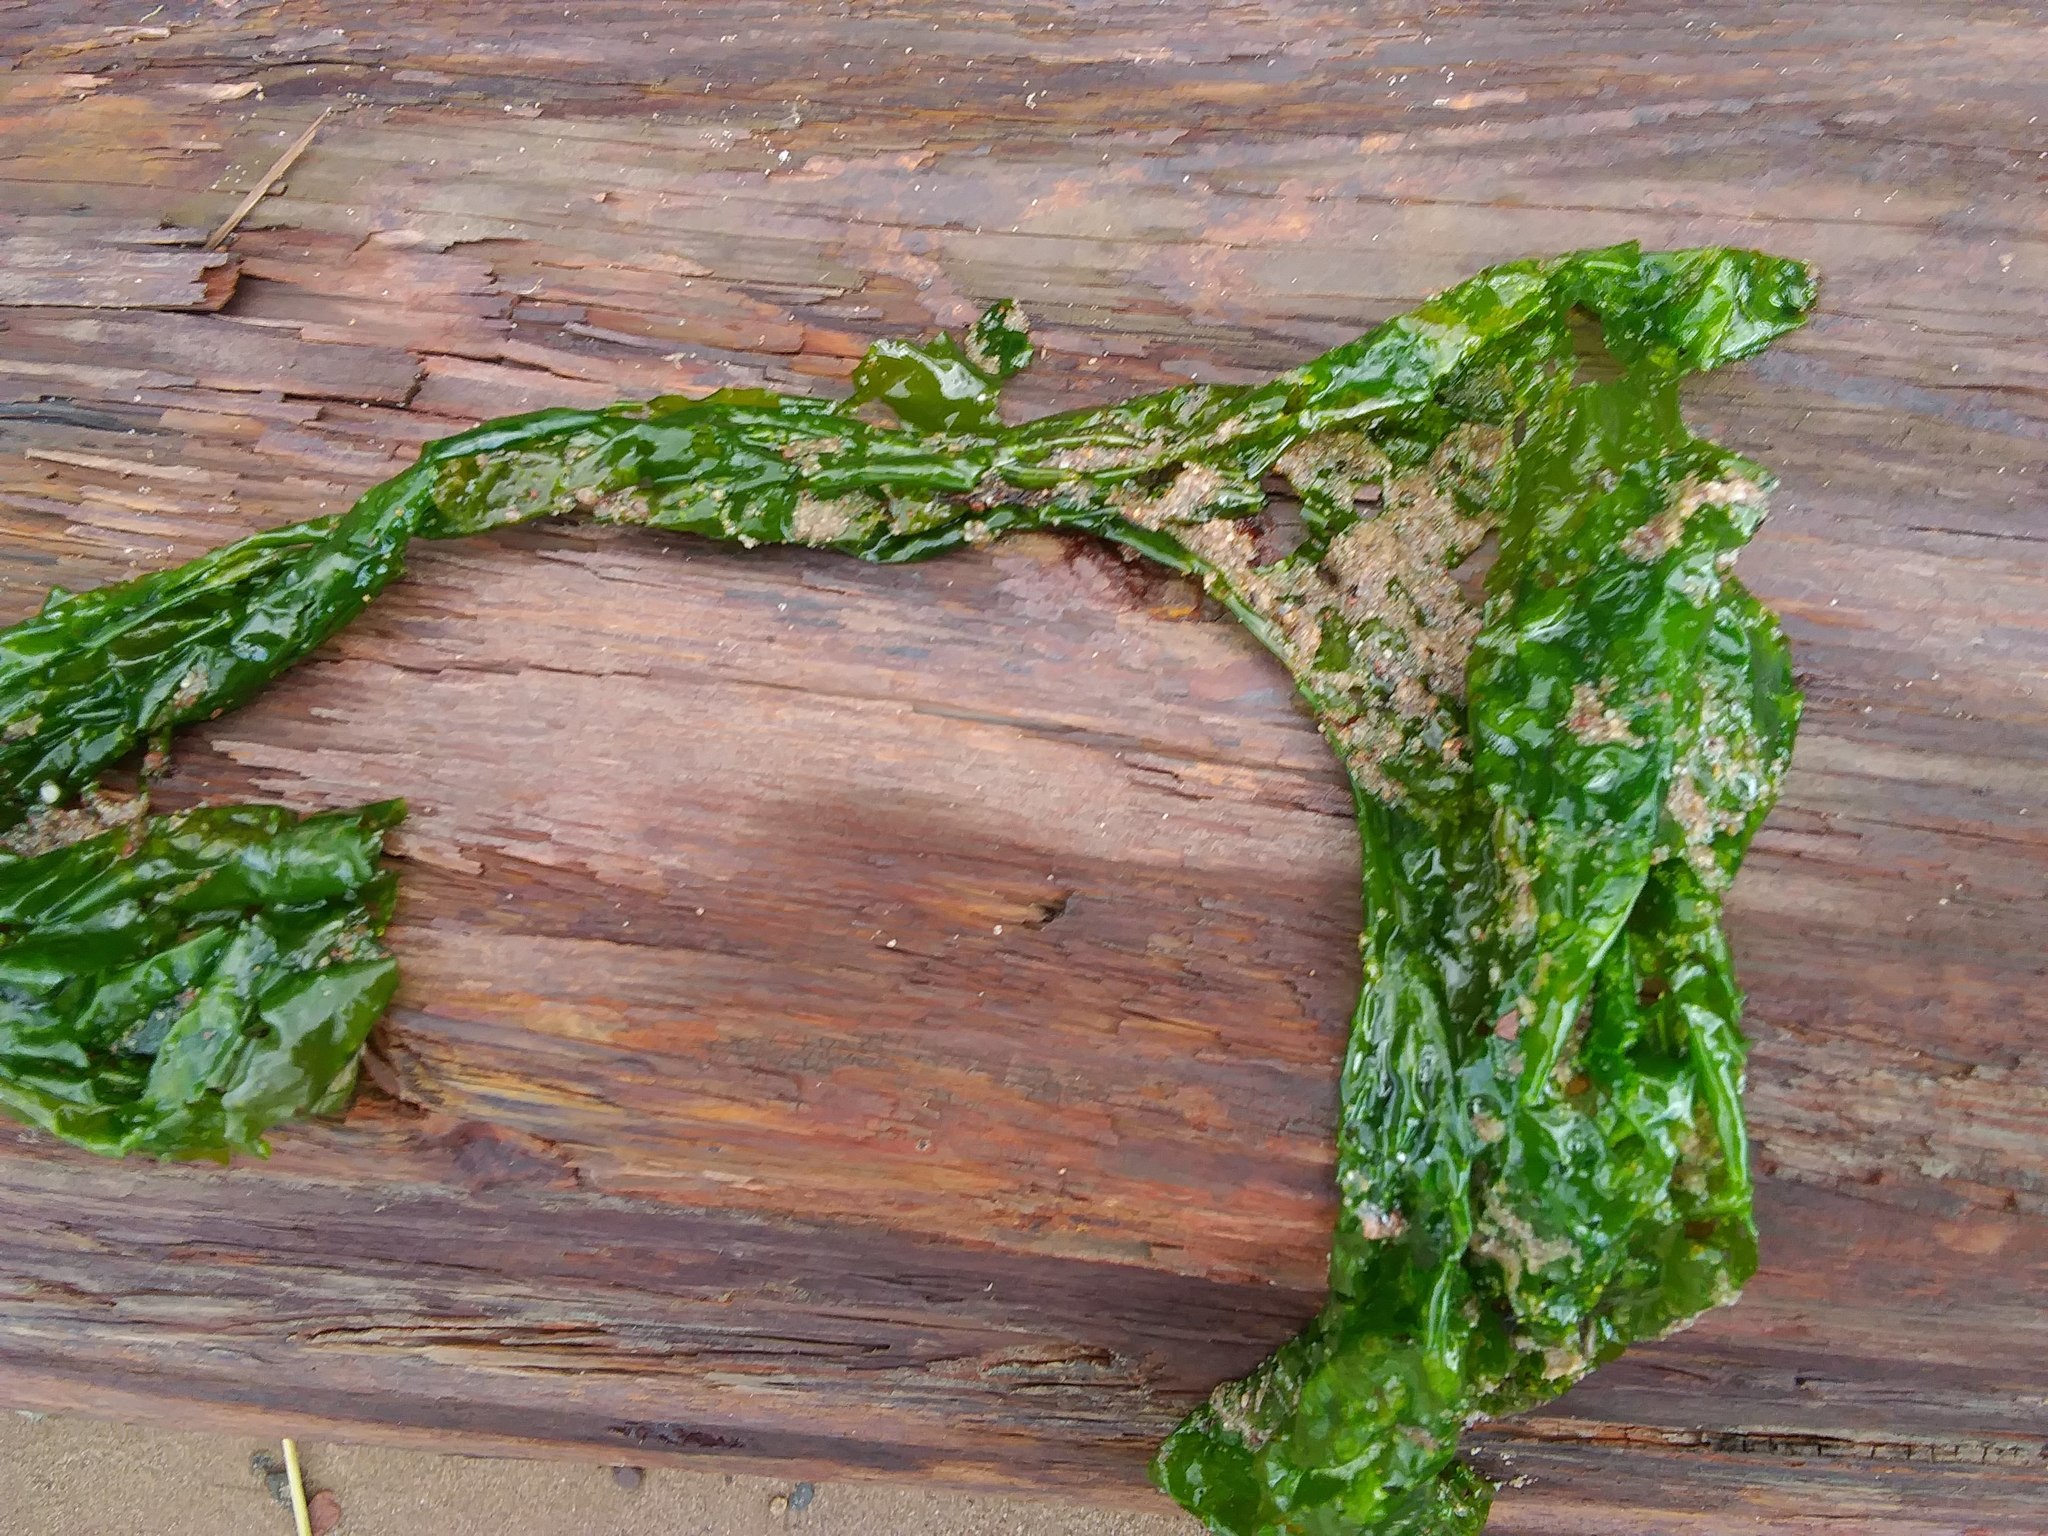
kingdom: Plantae
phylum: Chlorophyta
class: Ulvophyceae
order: Ulvales
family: Ulvaceae
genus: Ulva
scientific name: Ulva lactuca
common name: Sea lettuce
